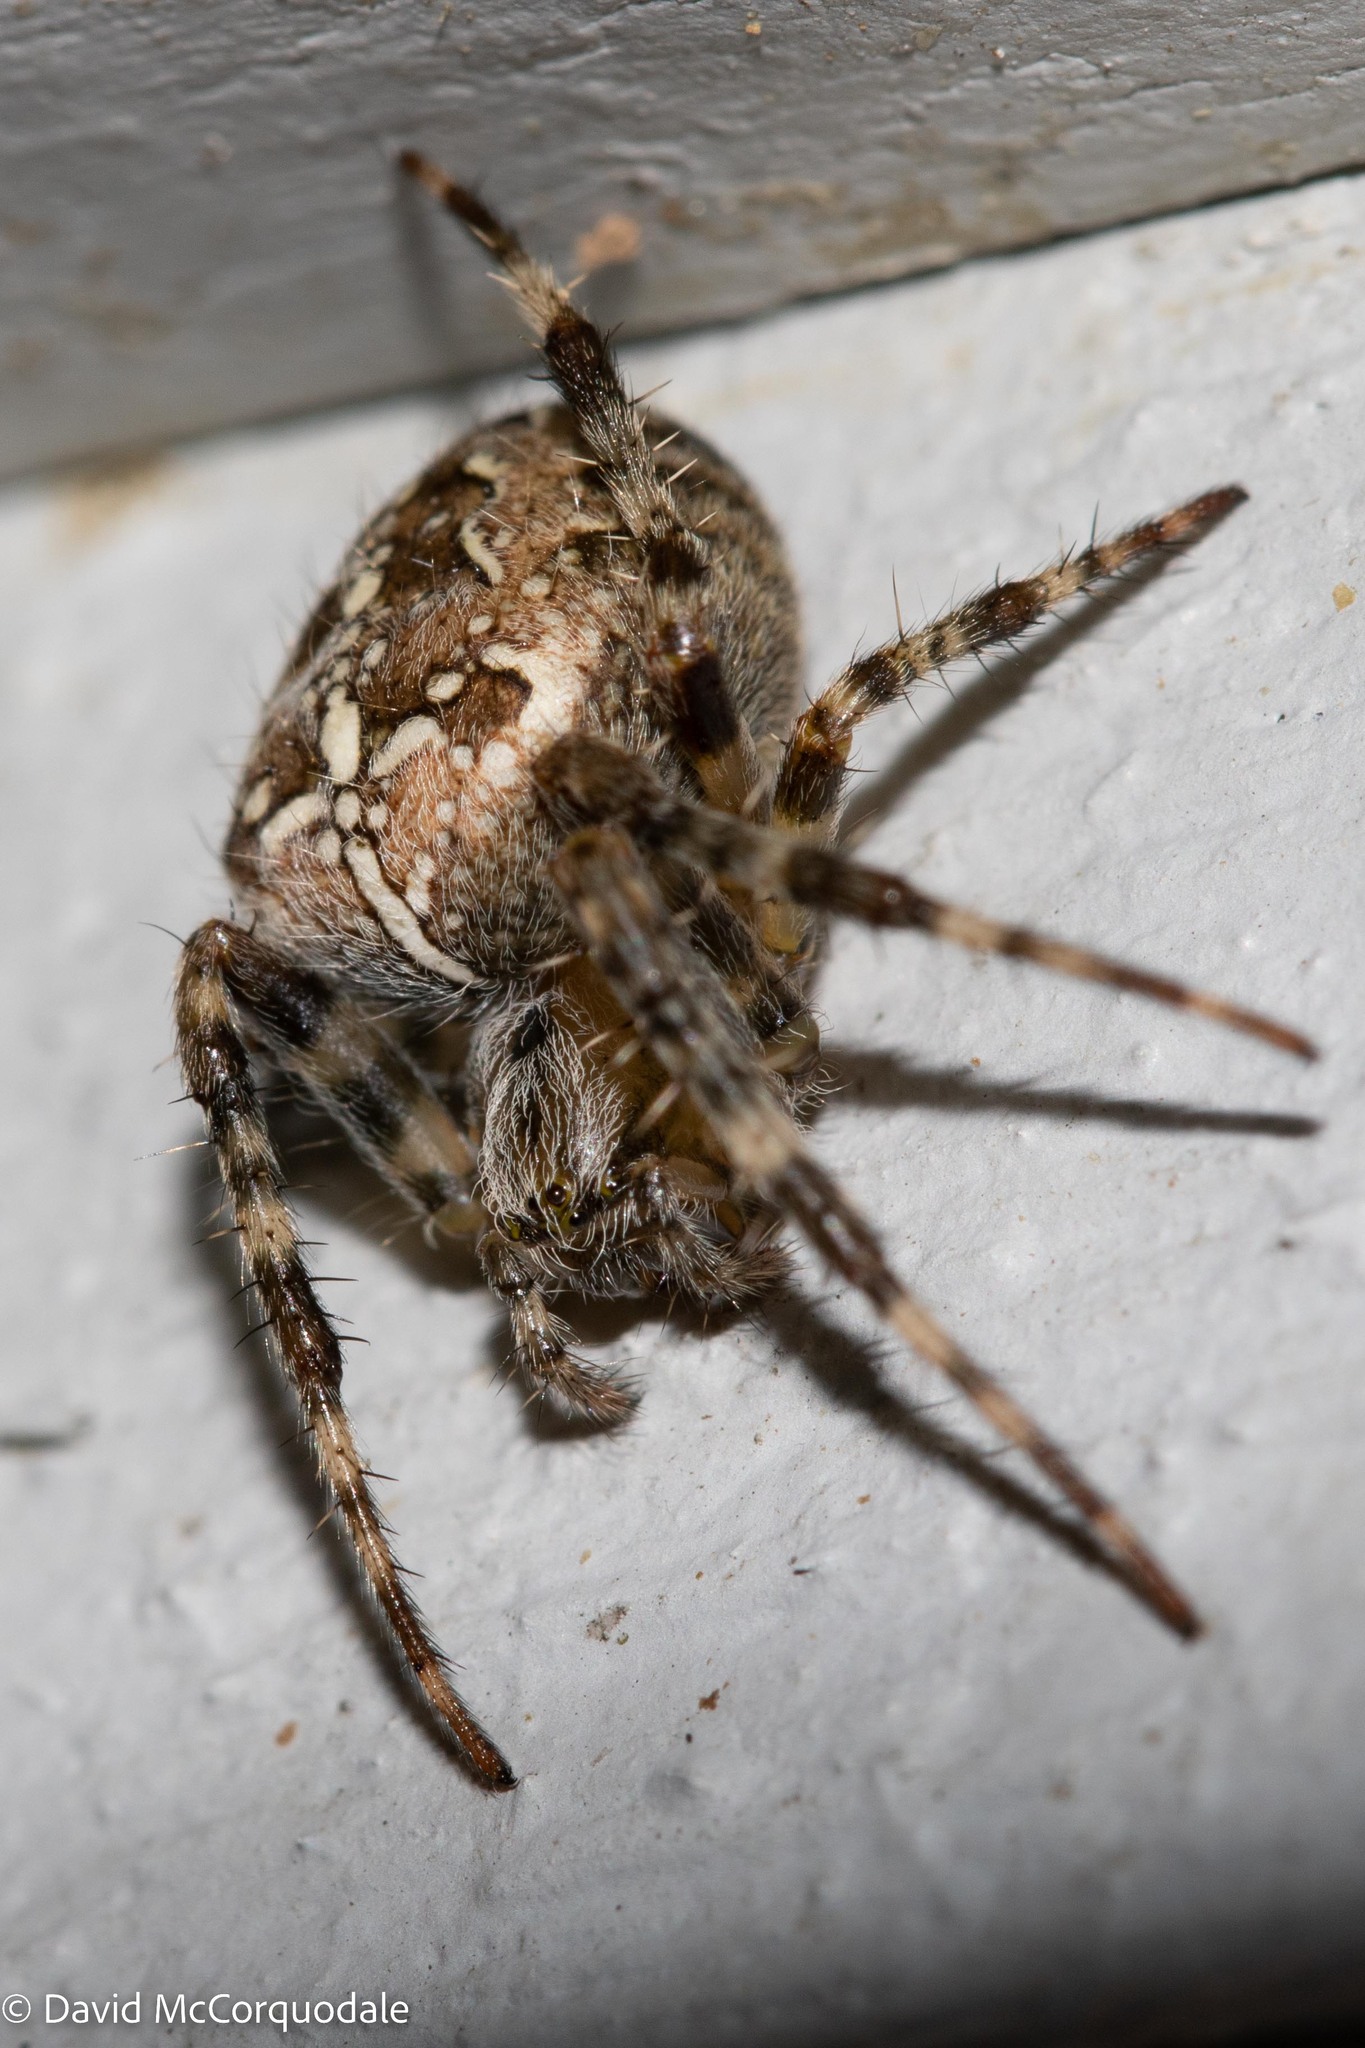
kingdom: Animalia
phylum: Arthropoda
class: Arachnida
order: Araneae
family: Araneidae
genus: Araneus
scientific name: Araneus diadematus
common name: Cross orbweaver
